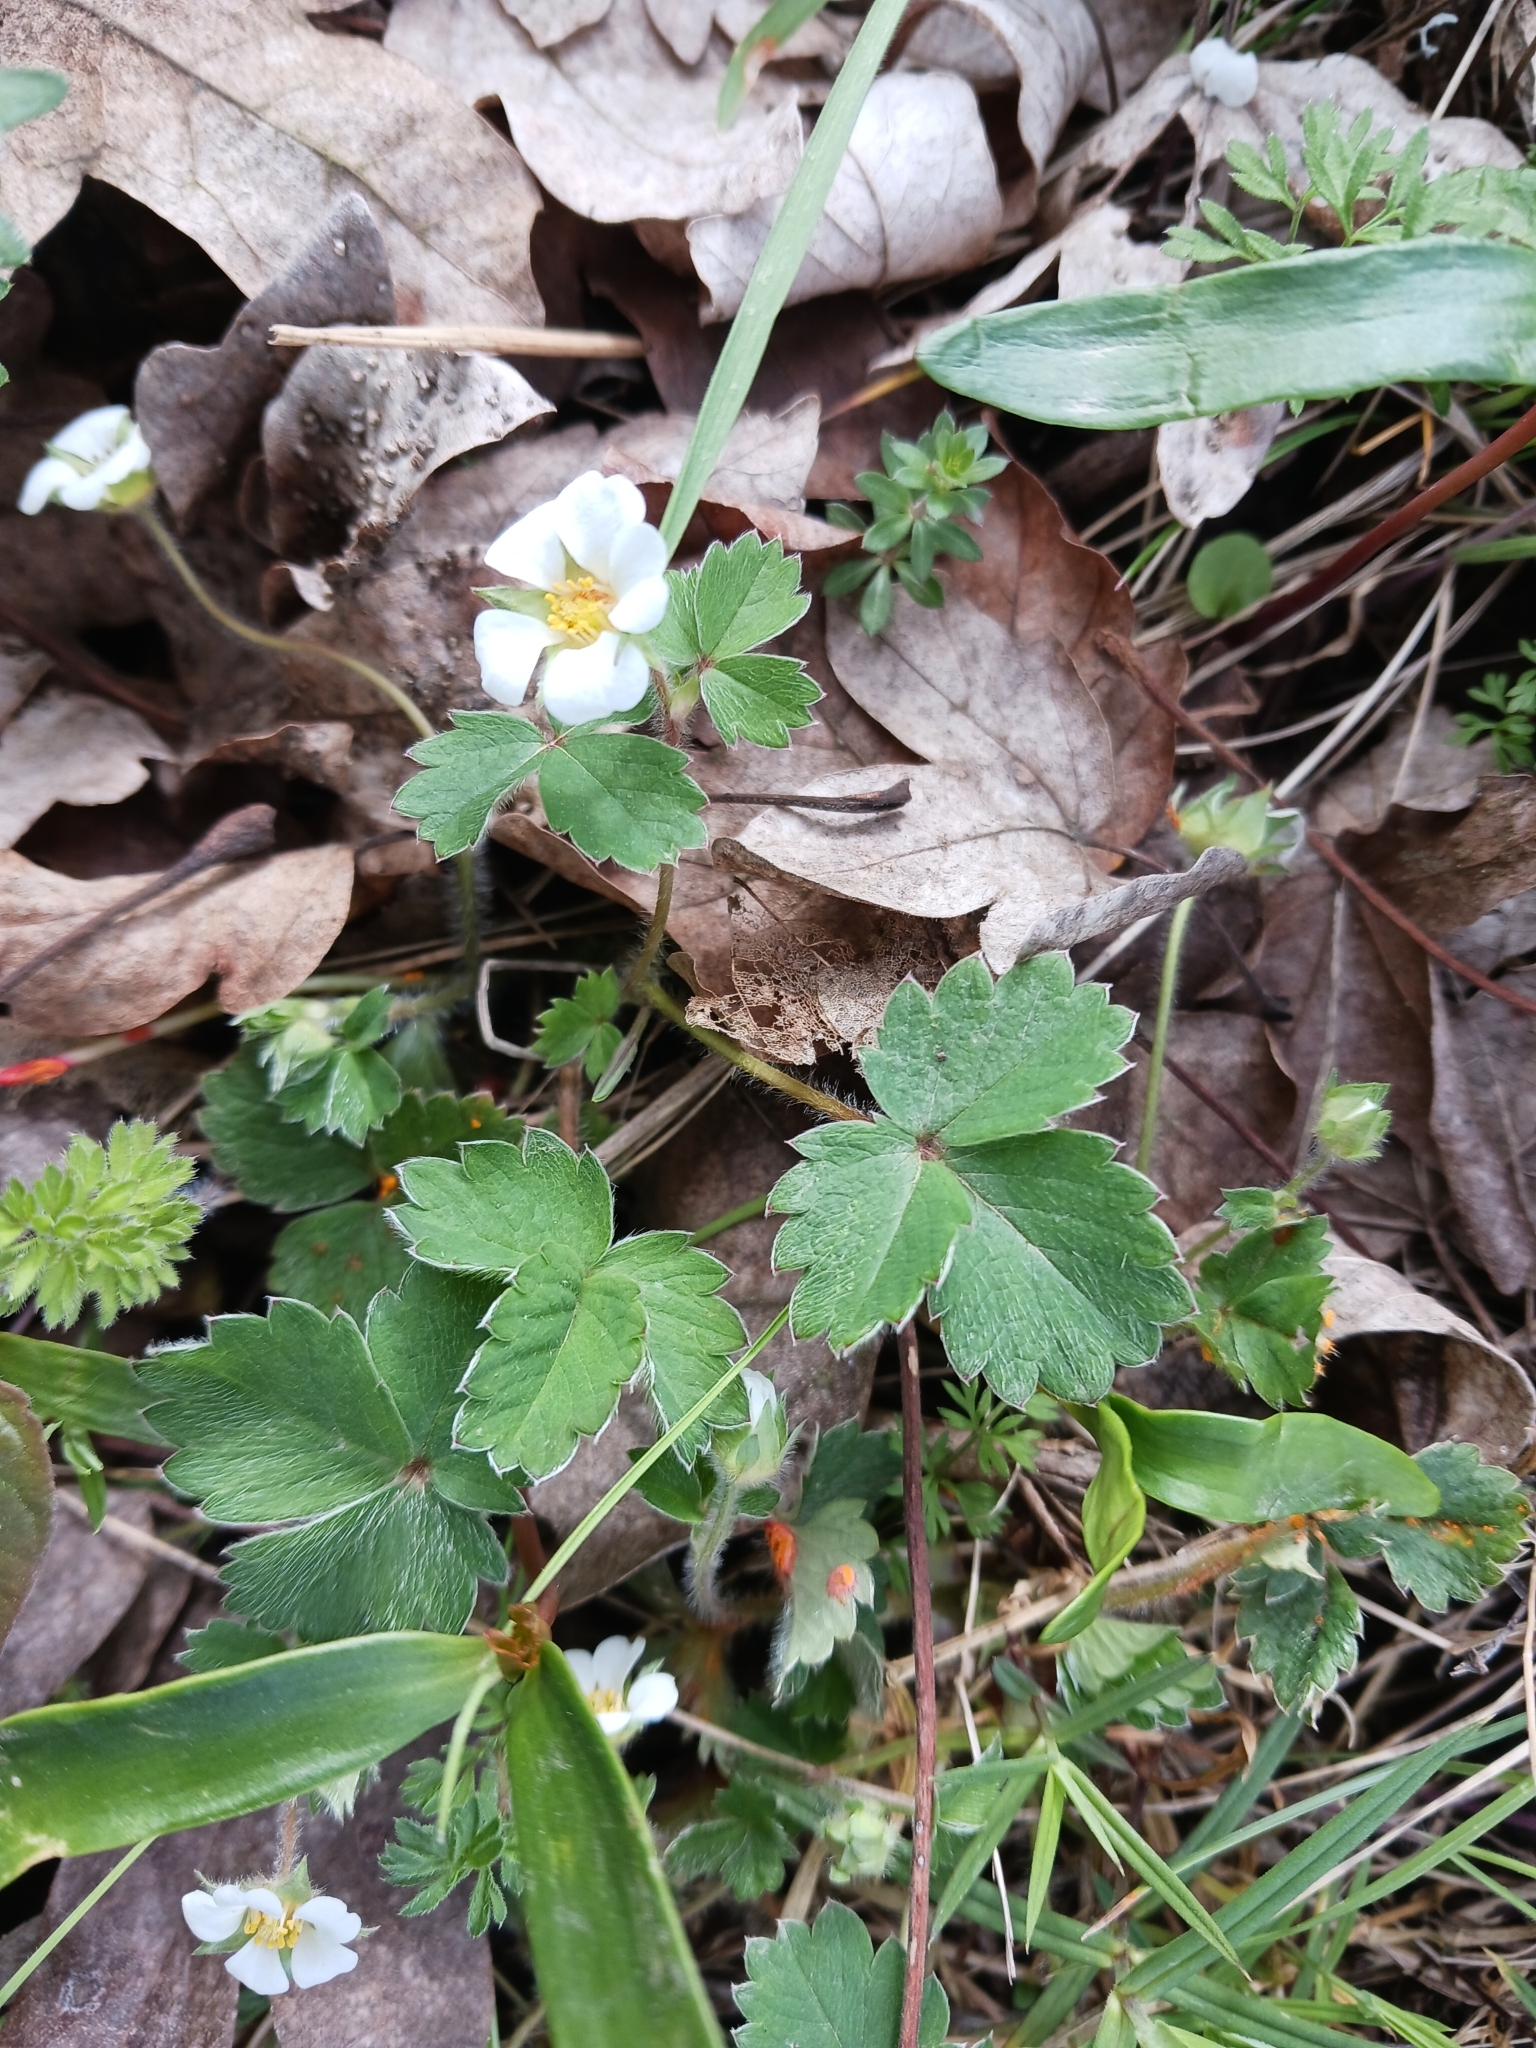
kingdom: Plantae
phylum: Tracheophyta
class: Magnoliopsida
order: Rosales
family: Rosaceae
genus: Potentilla
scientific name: Potentilla sterilis
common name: Barren strawberry
